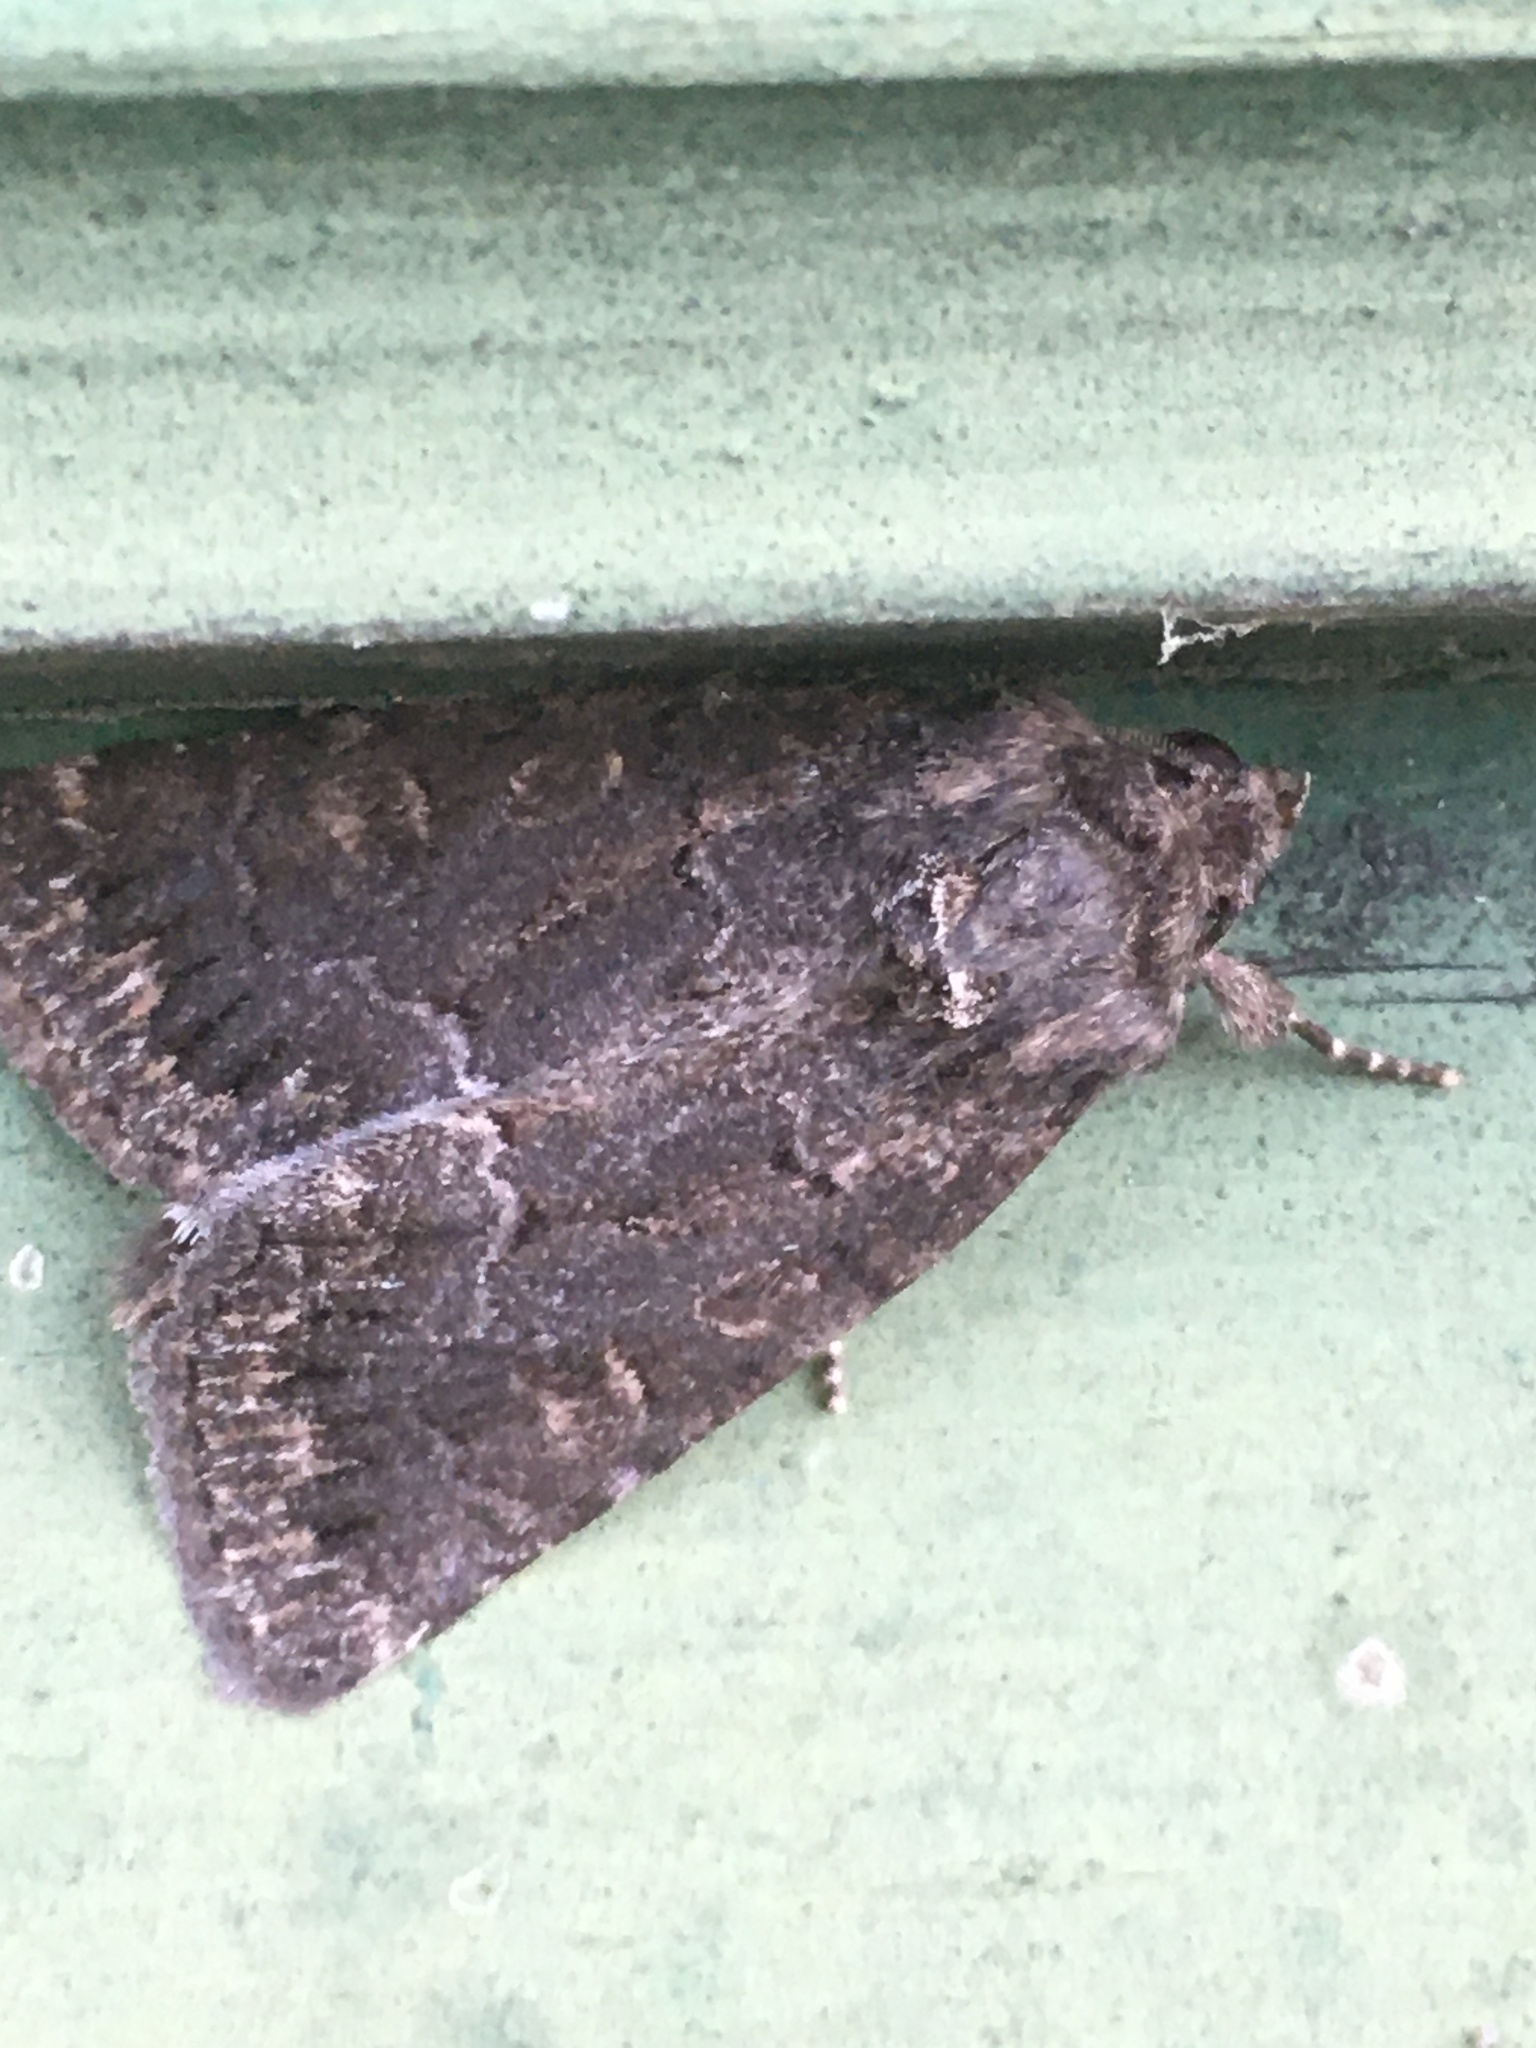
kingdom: Animalia
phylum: Arthropoda
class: Insecta
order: Lepidoptera
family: Noctuidae
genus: Thalpophila
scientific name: Thalpophila matura
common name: Straw underwing
